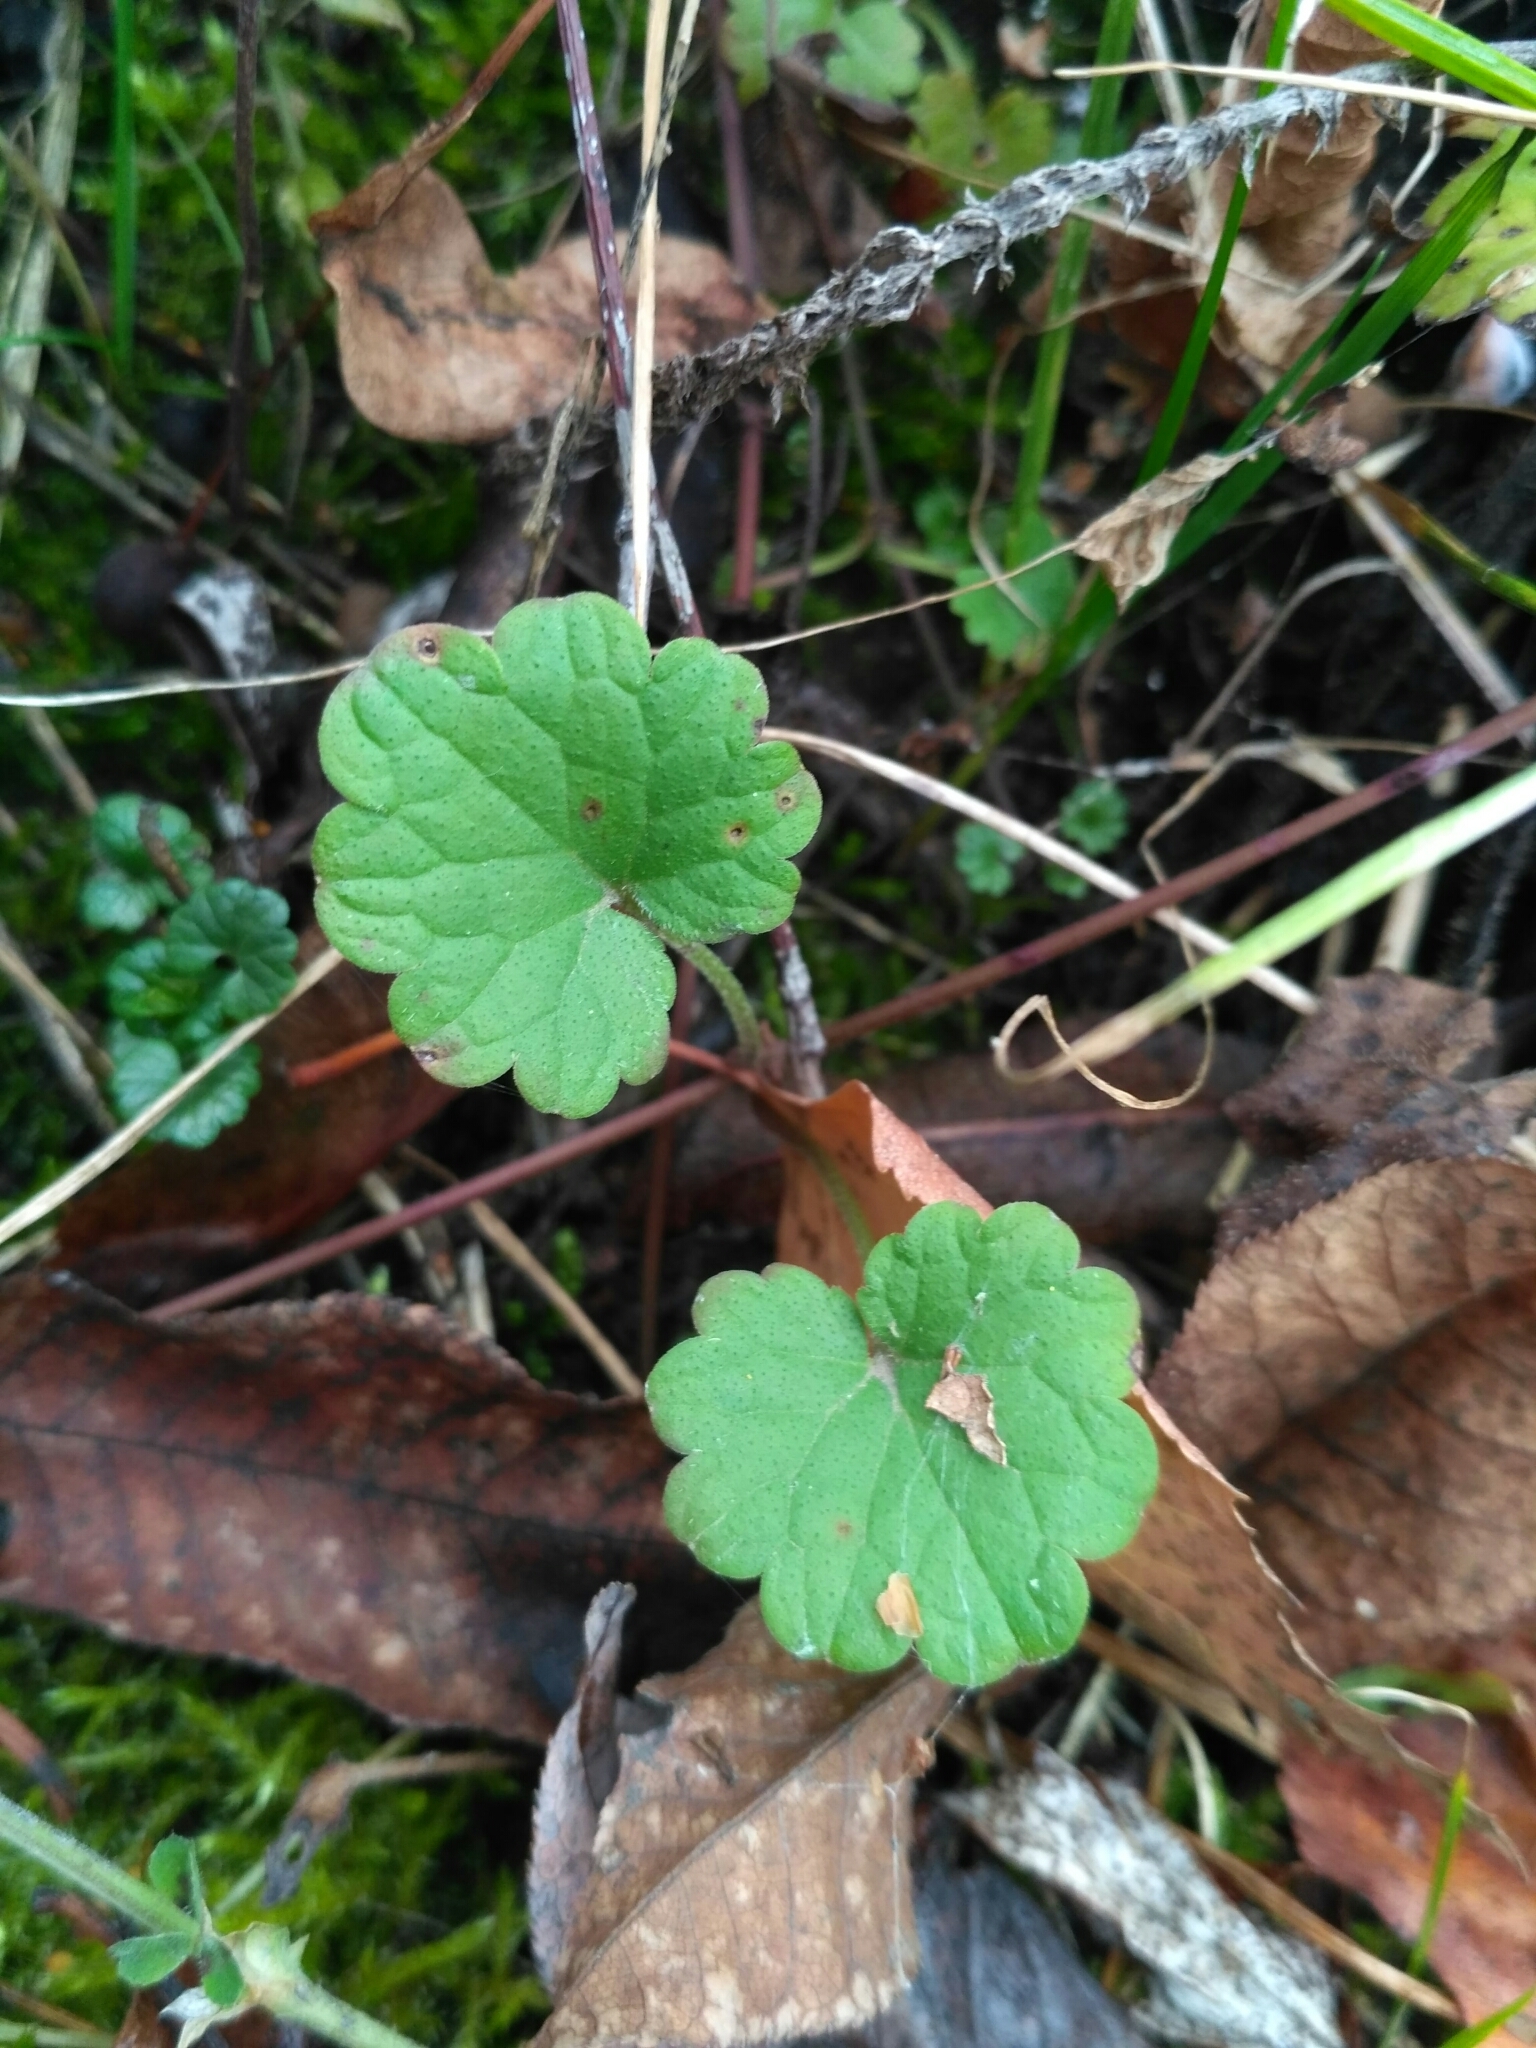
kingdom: Plantae
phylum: Tracheophyta
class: Magnoliopsida
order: Lamiales
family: Lamiaceae
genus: Glechoma
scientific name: Glechoma hederacea
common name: Ground ivy
